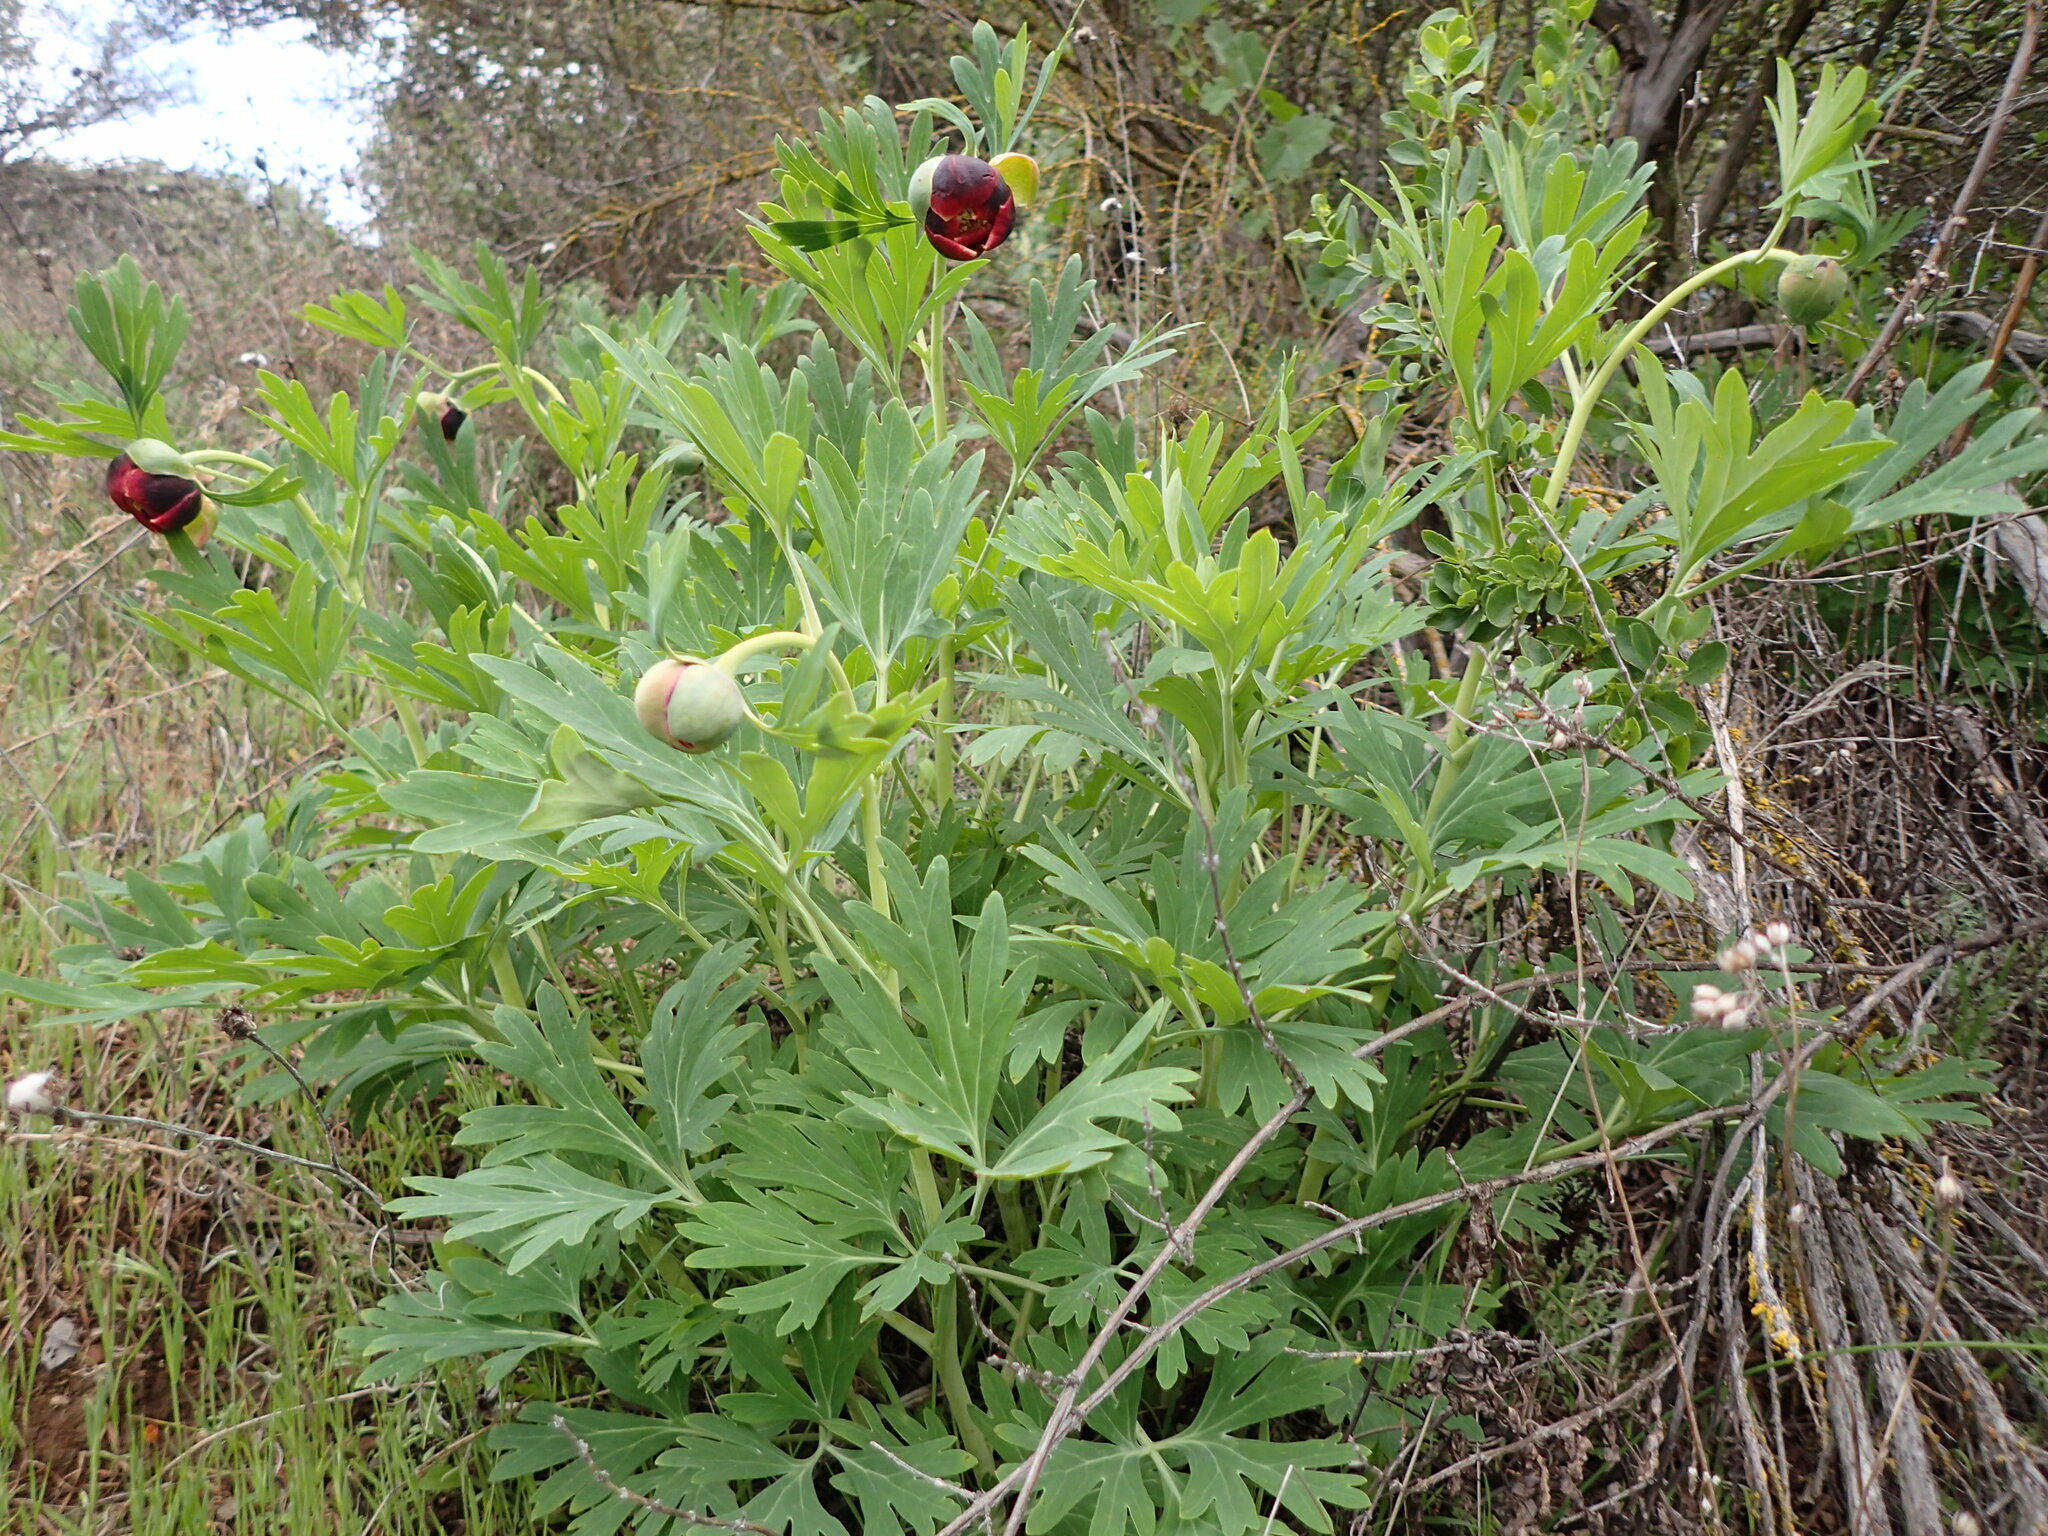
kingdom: Plantae
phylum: Tracheophyta
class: Magnoliopsida
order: Saxifragales
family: Paeoniaceae
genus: Paeonia
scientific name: Paeonia californica
